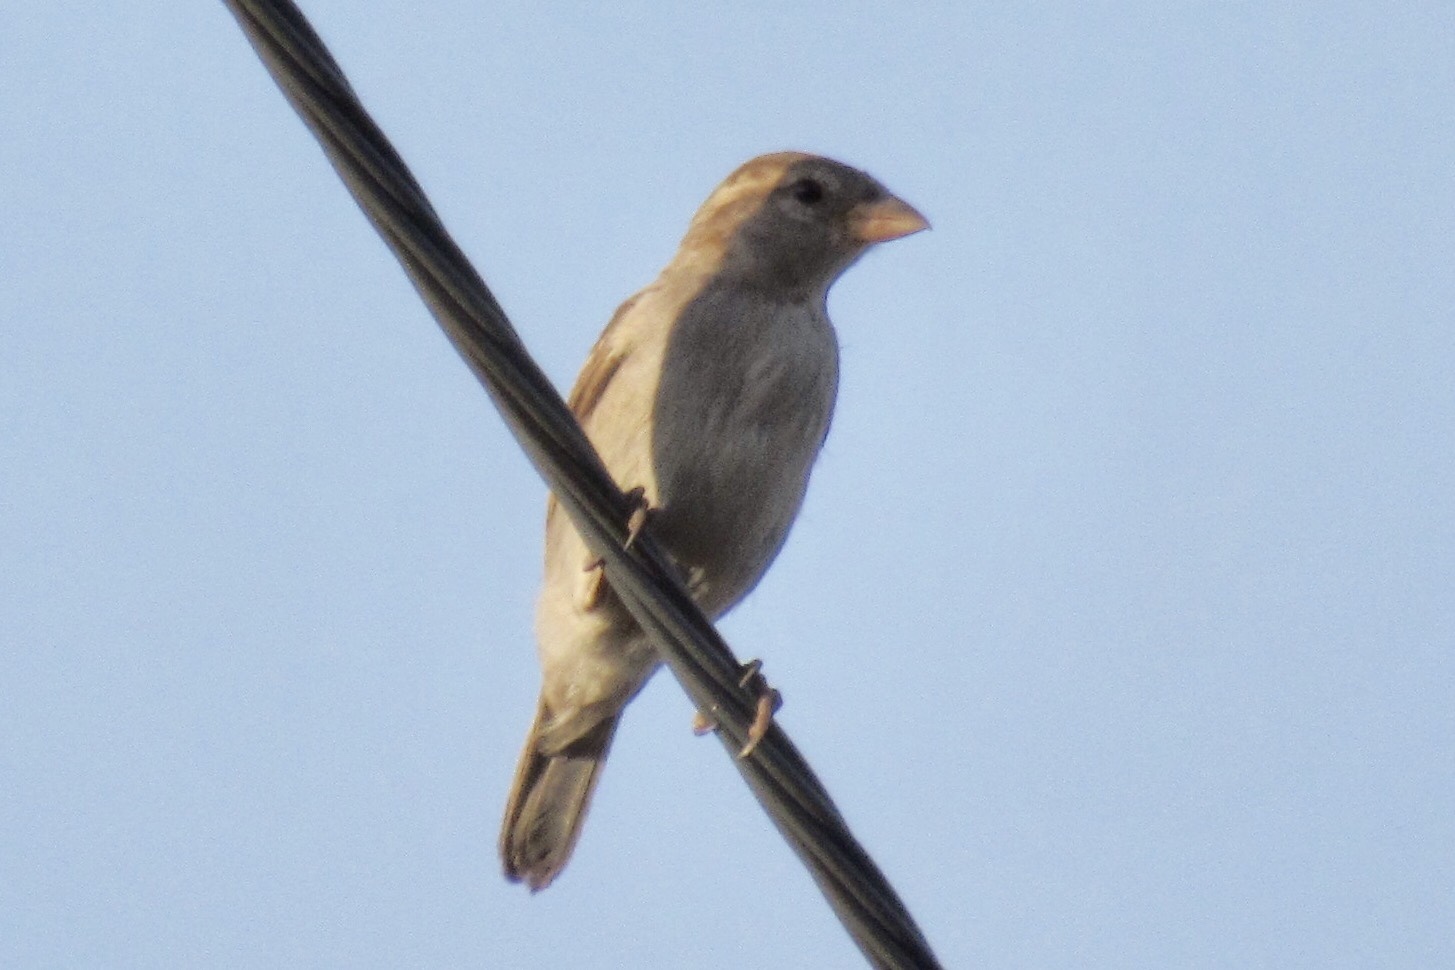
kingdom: Animalia
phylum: Chordata
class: Aves
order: Passeriformes
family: Passeridae
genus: Passer
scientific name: Passer domesticus
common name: House sparrow
